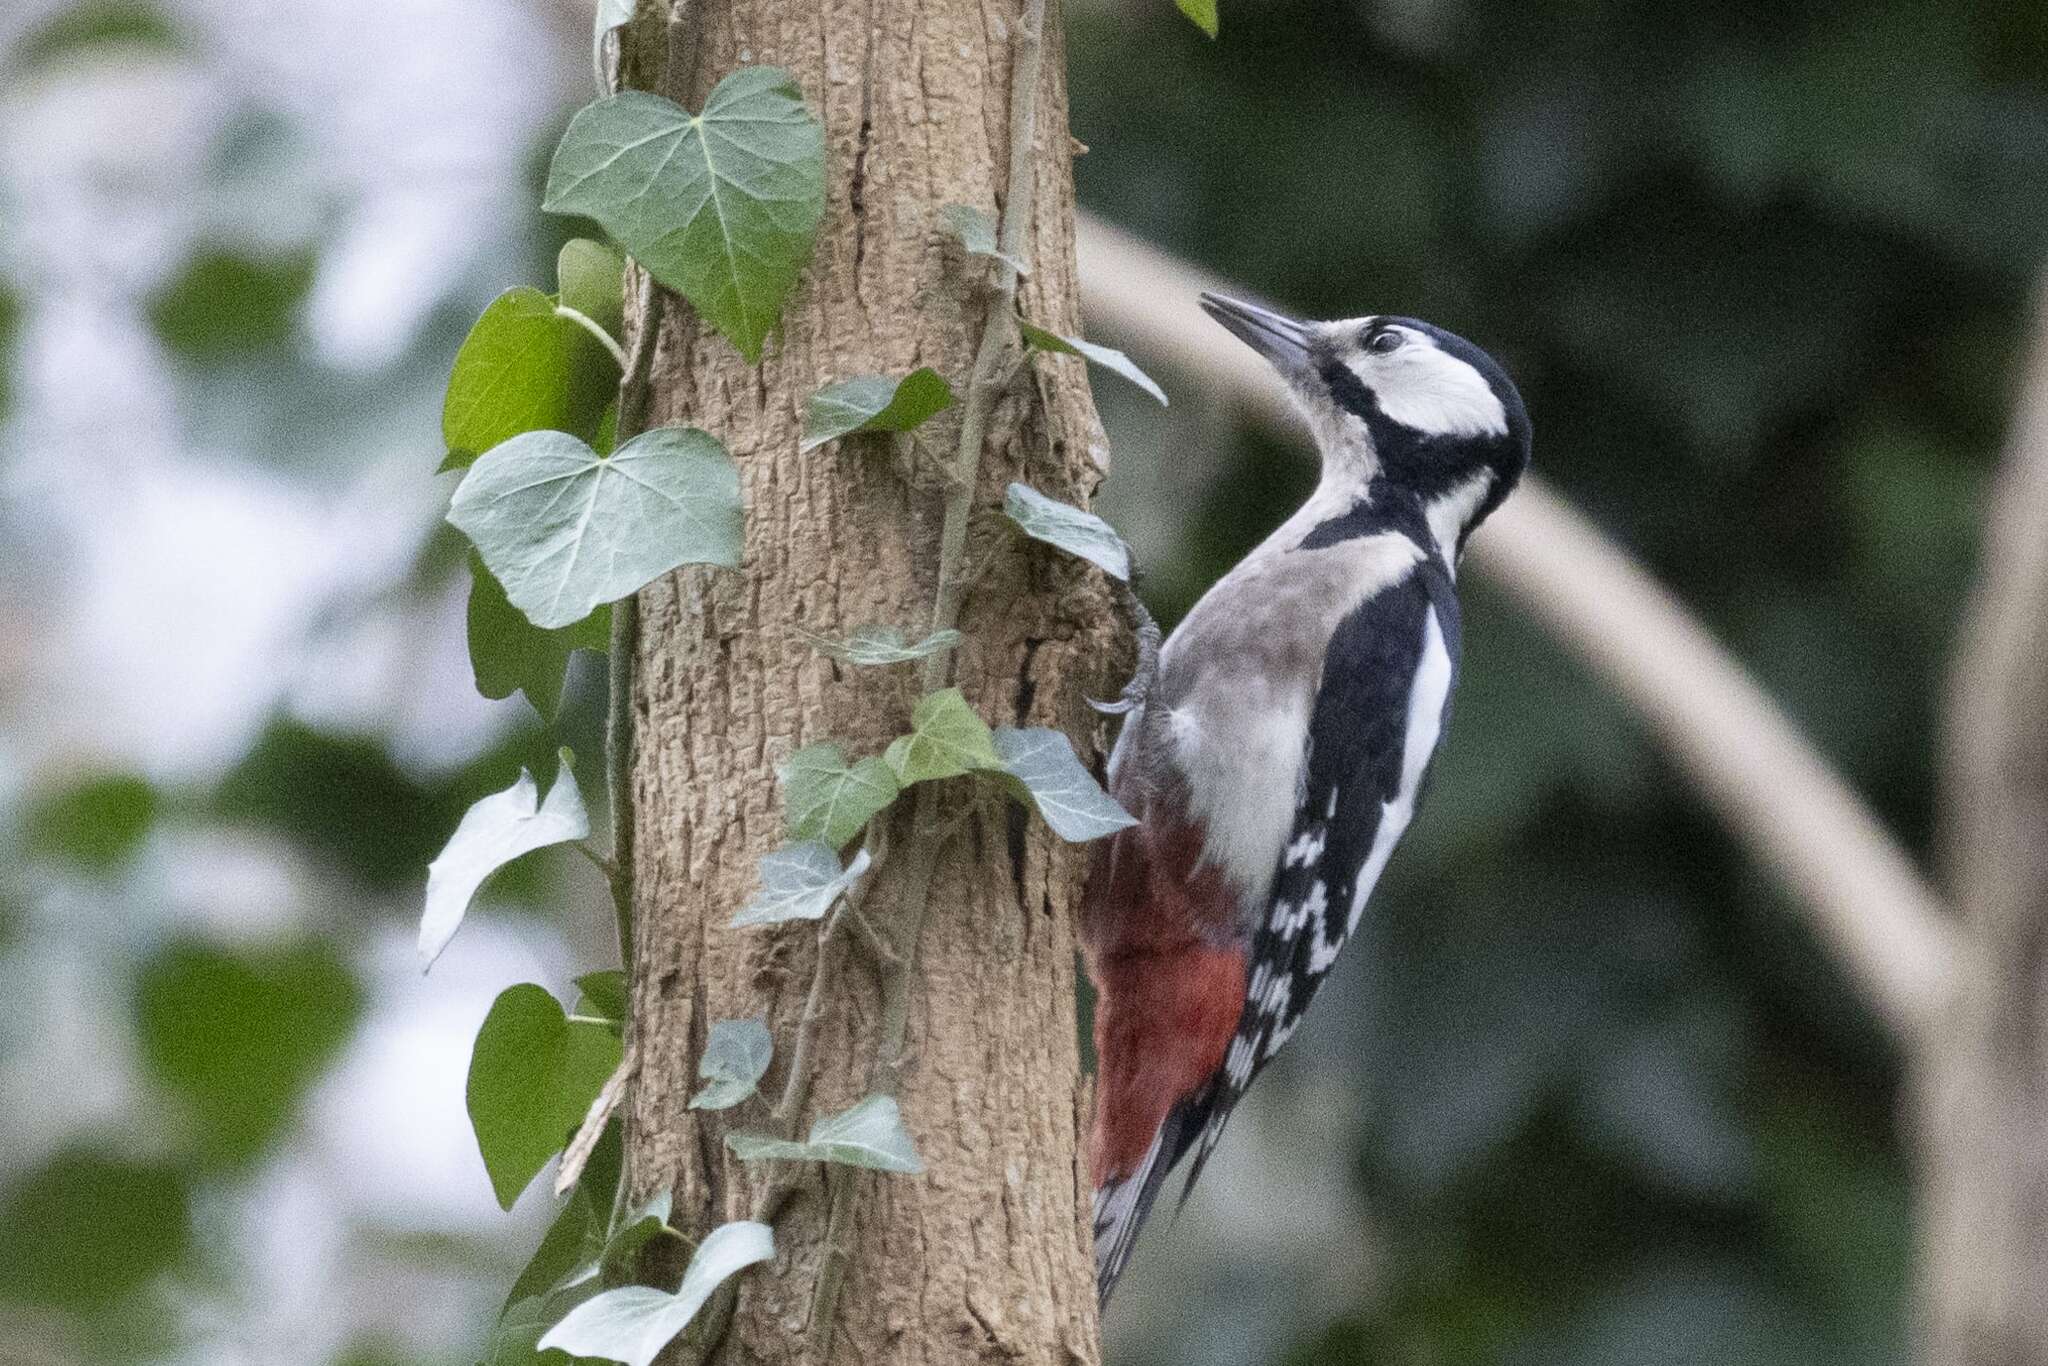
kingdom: Animalia
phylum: Chordata
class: Aves
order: Piciformes
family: Picidae
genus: Dendrocopos
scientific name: Dendrocopos major
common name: Great spotted woodpecker
